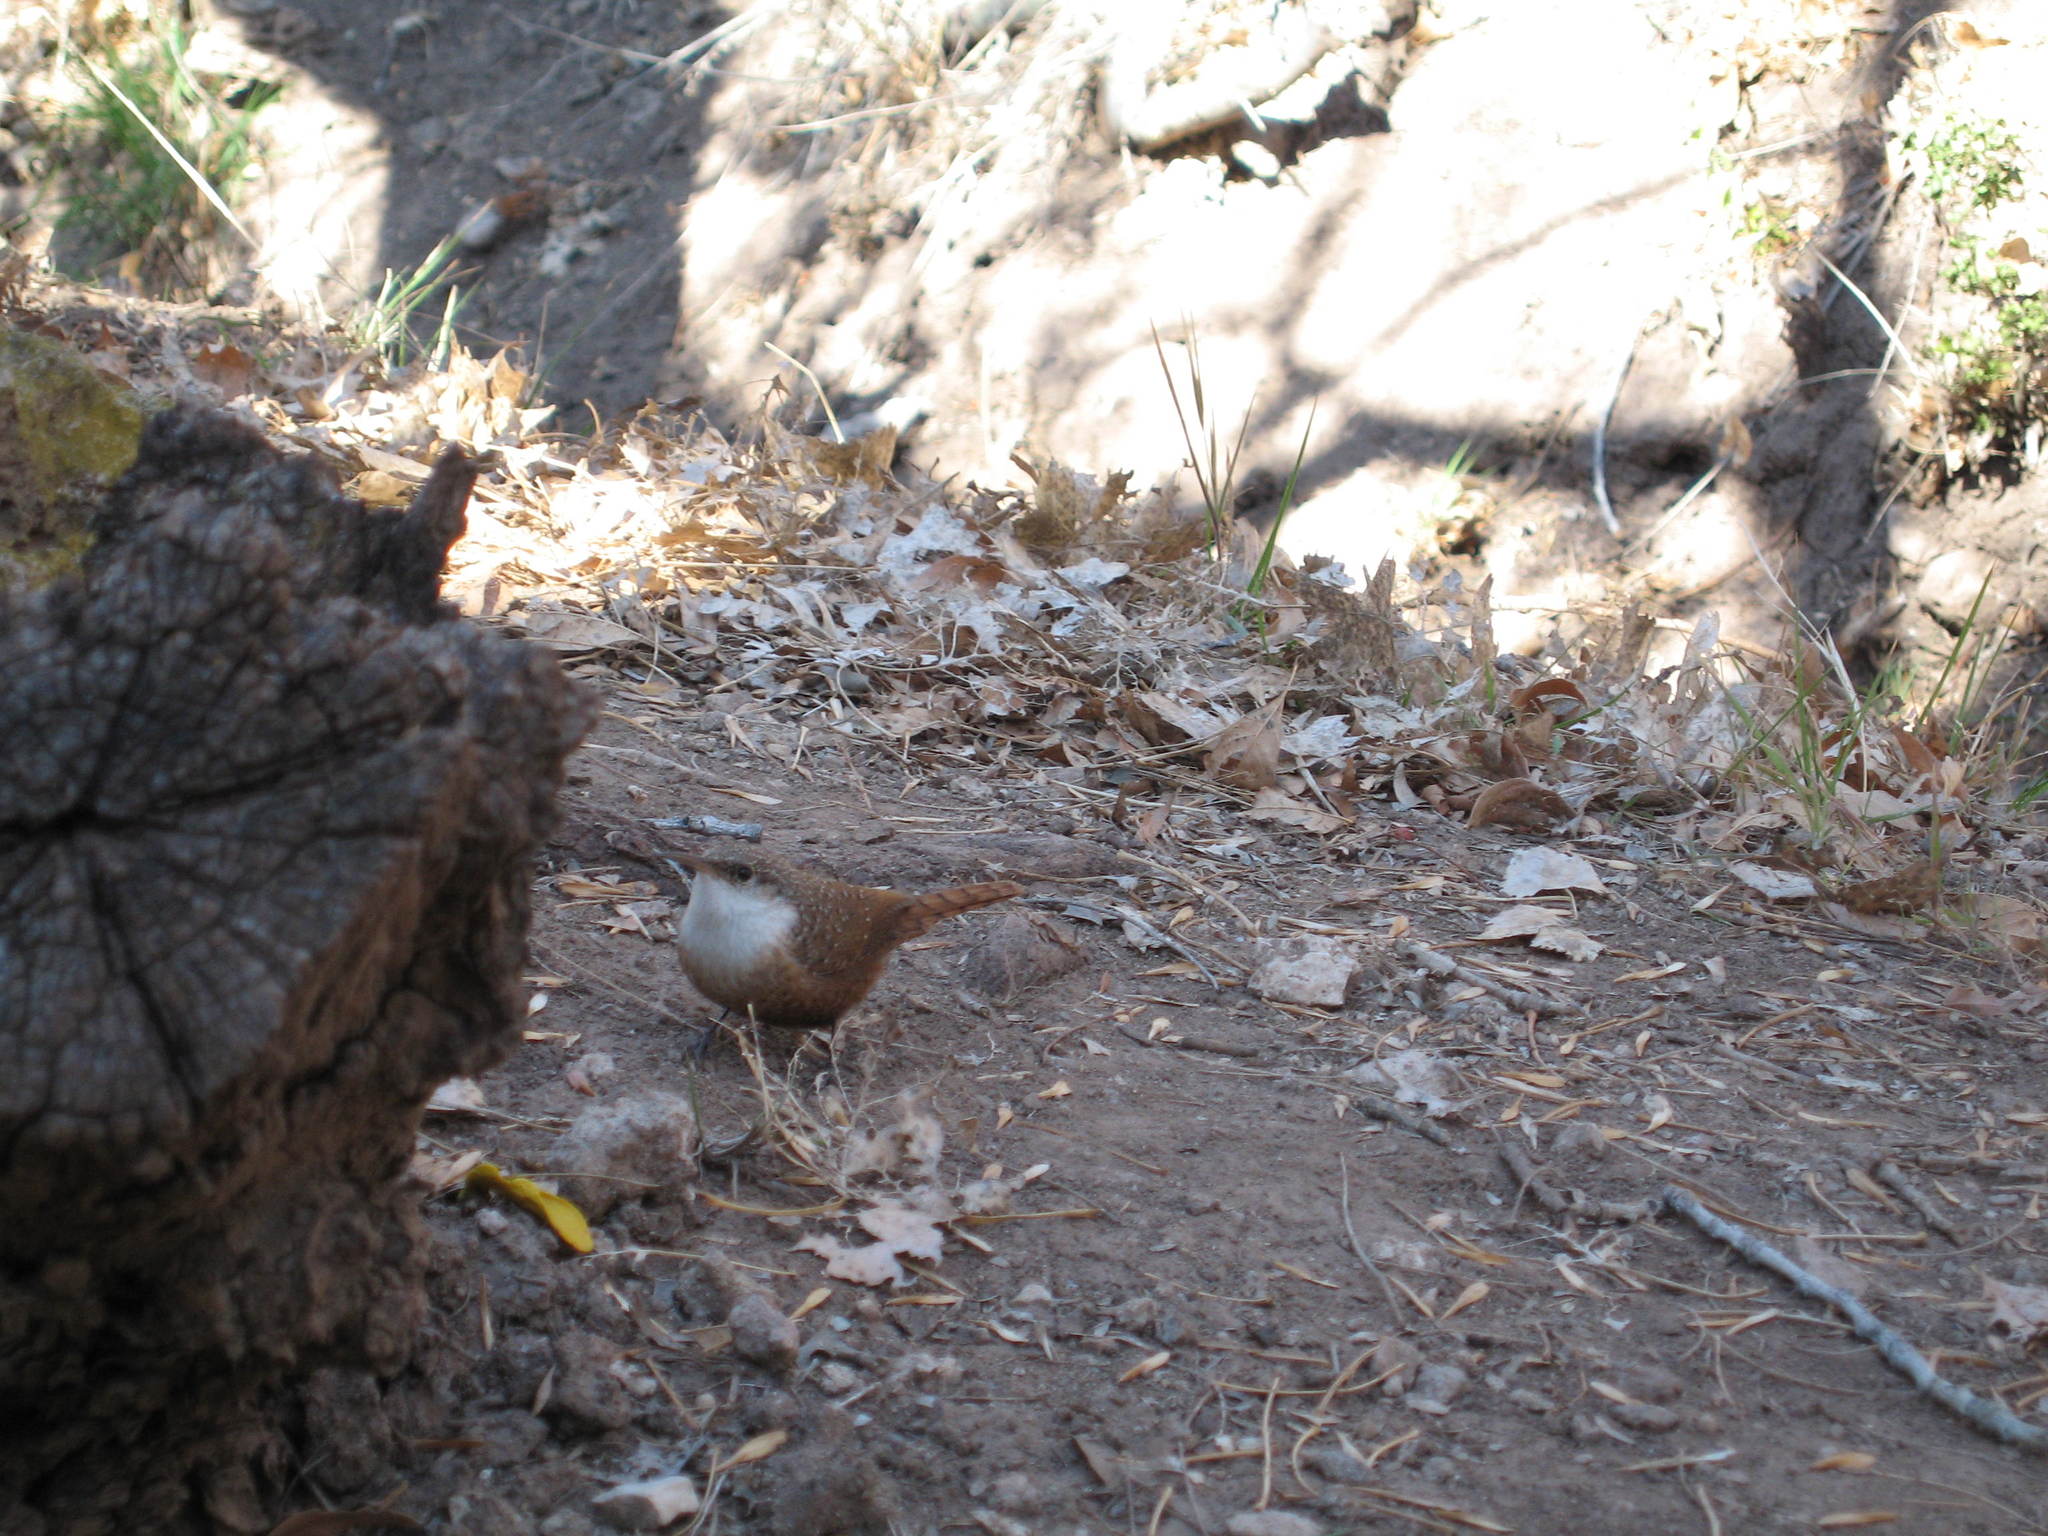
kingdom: Animalia
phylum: Chordata
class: Aves
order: Passeriformes
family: Troglodytidae
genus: Catherpes
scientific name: Catherpes mexicanus
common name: Canyon wren
